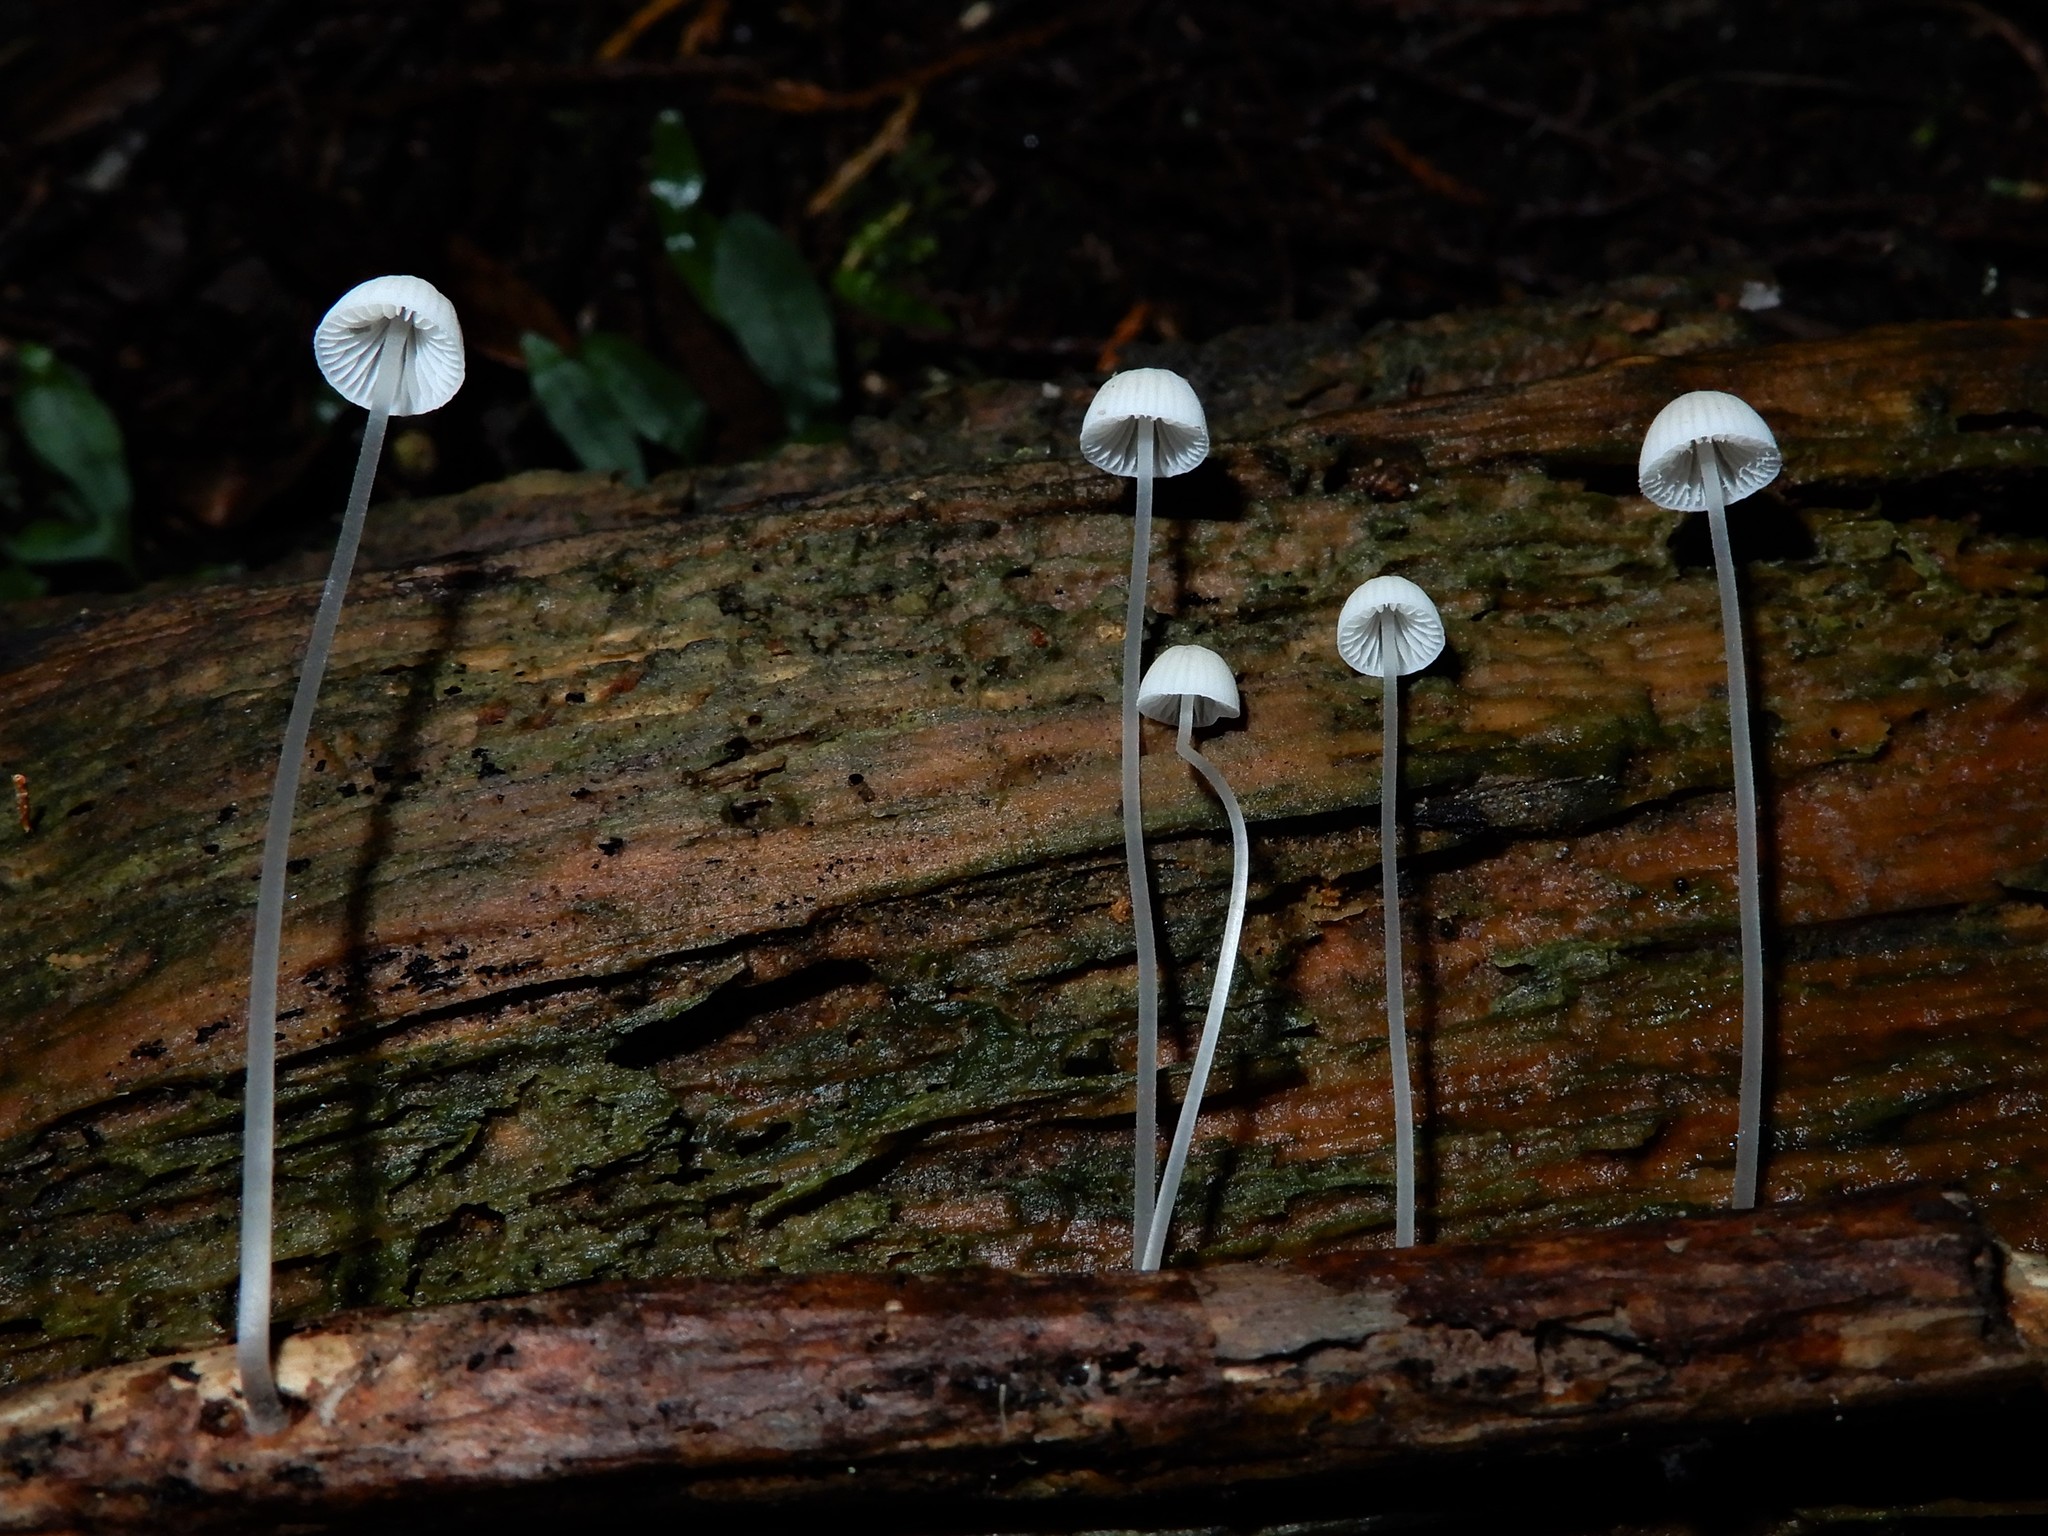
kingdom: Fungi
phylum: Basidiomycota
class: Agaricomycetes
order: Agaricales
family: Mycenaceae
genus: Mycena
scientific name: Mycena
